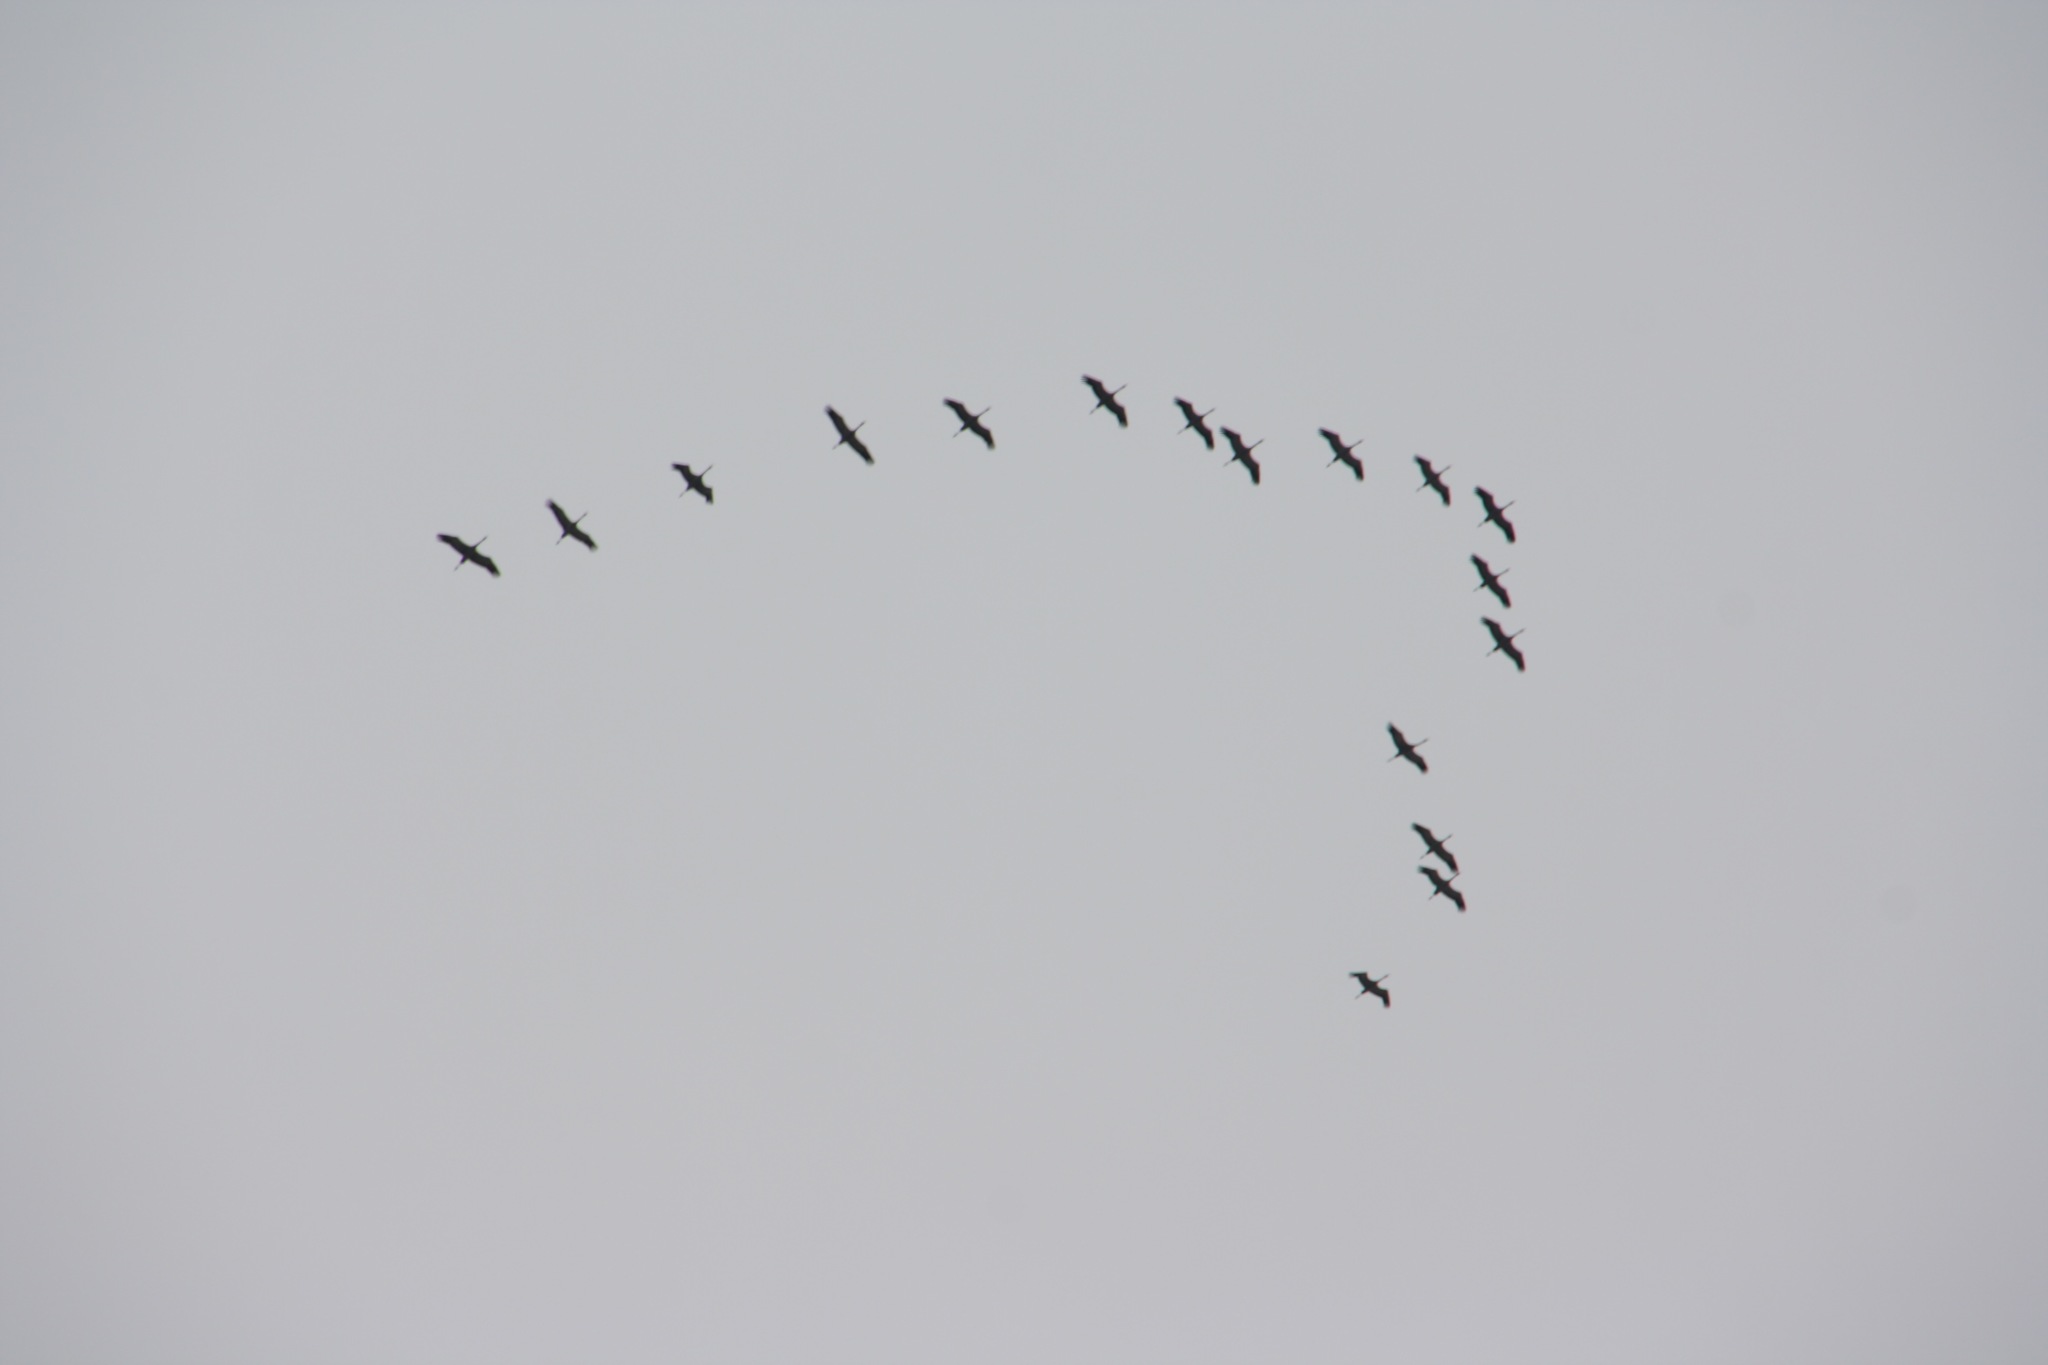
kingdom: Animalia
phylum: Chordata
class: Aves
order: Gruiformes
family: Gruidae
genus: Grus
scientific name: Grus grus
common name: Common crane
